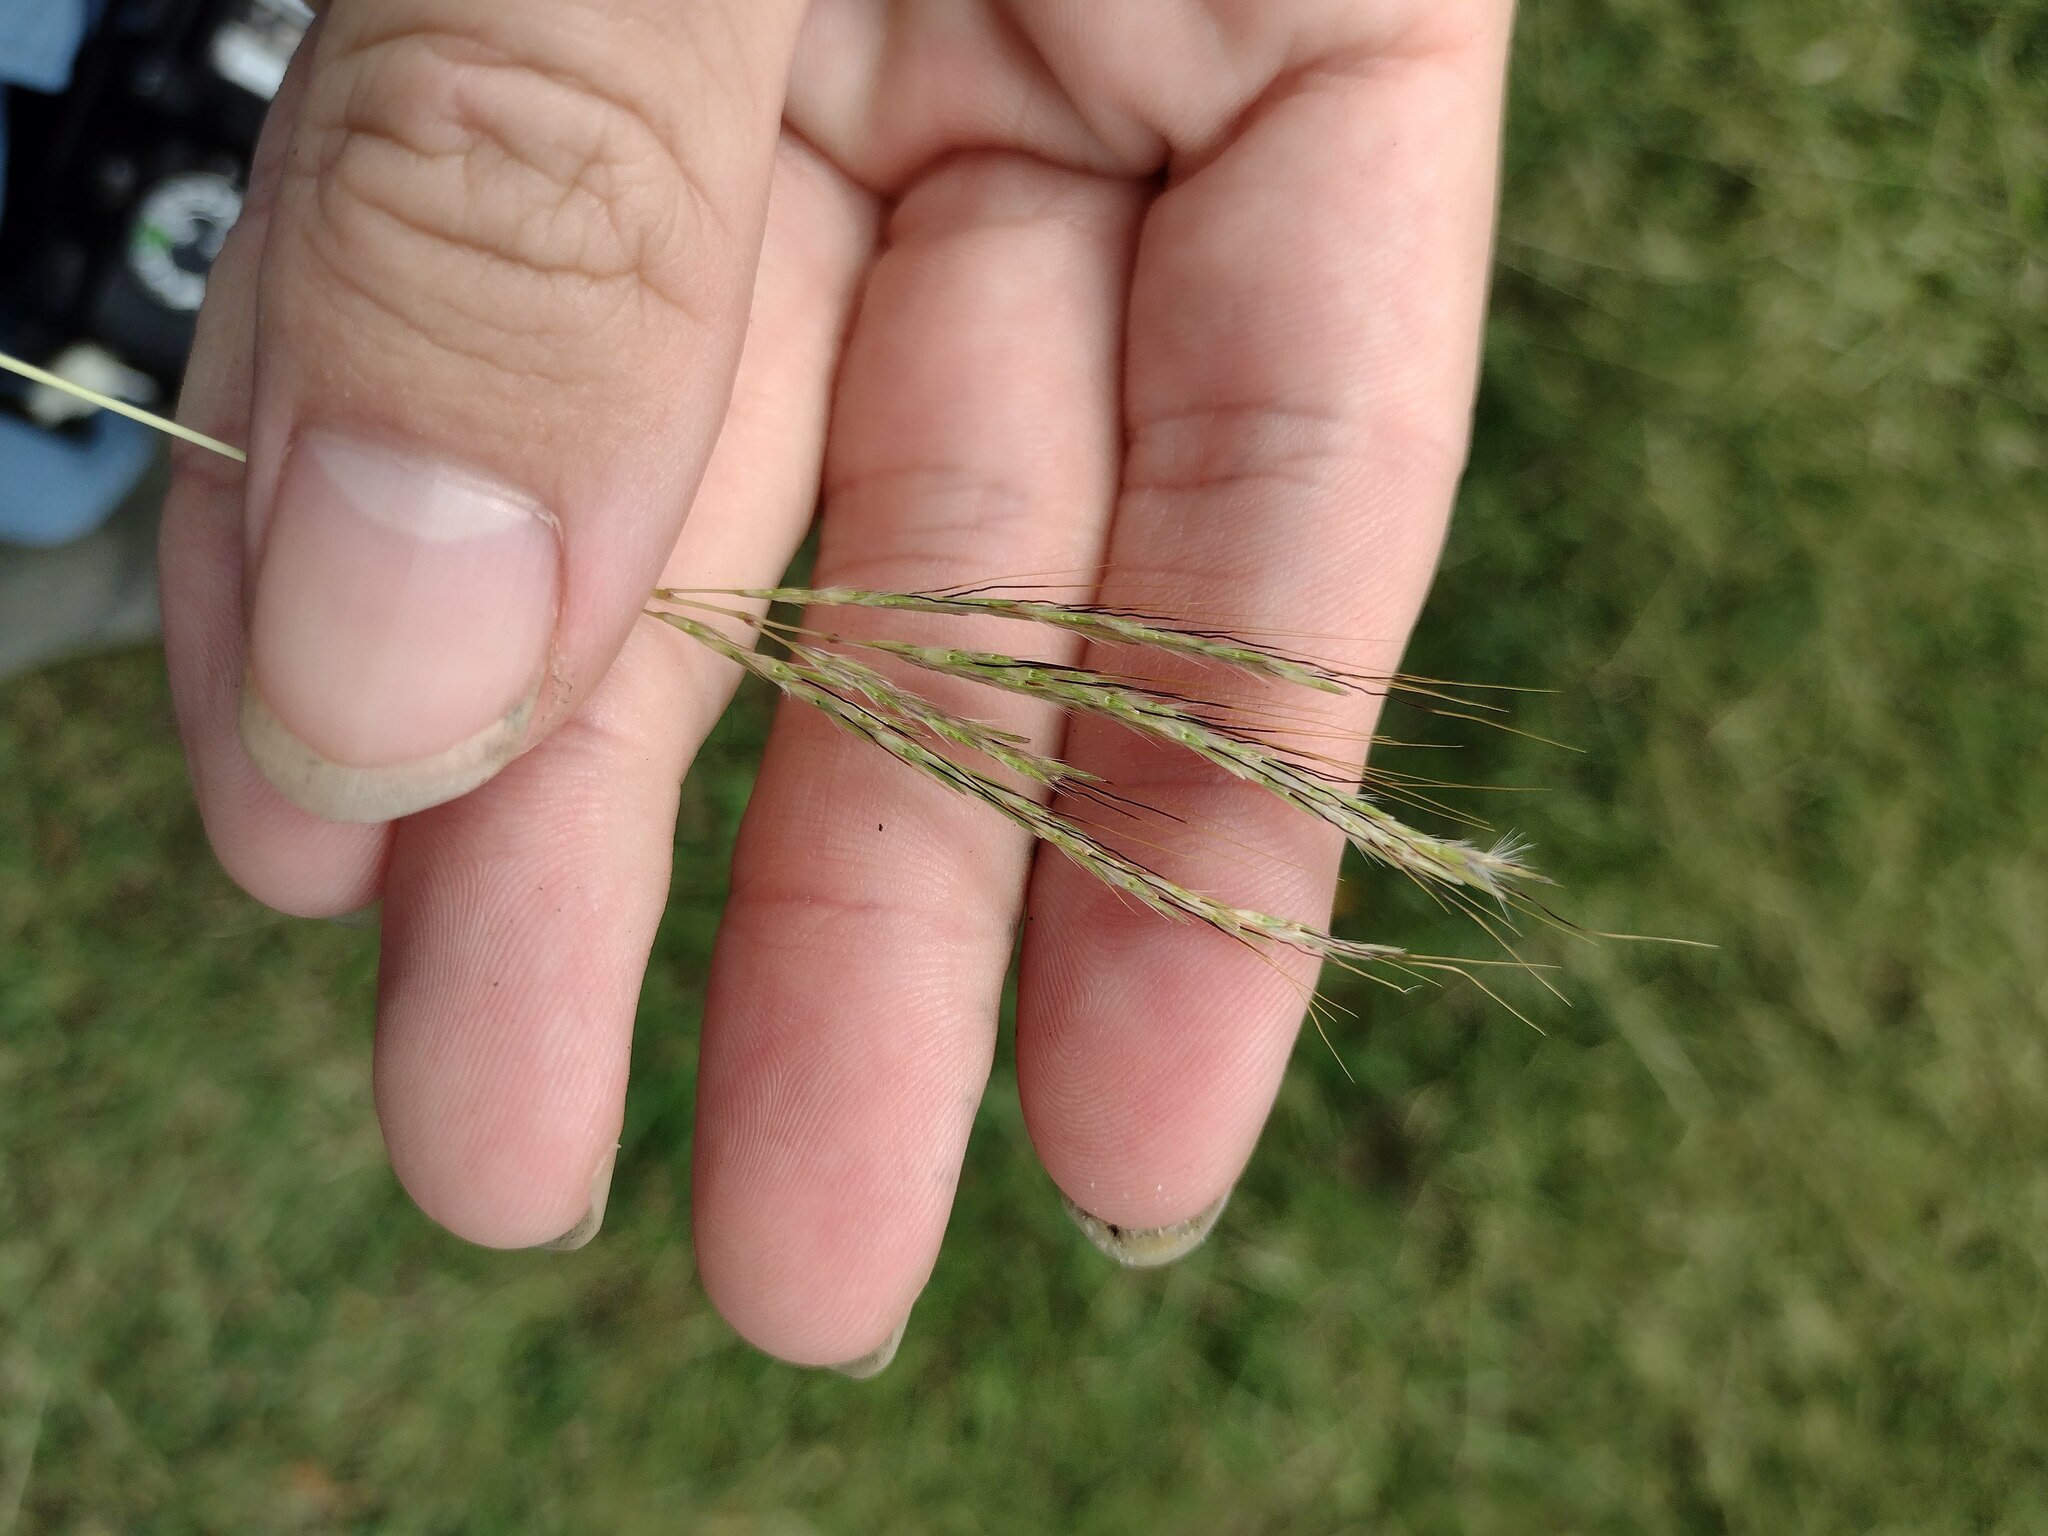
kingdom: Plantae
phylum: Tracheophyta
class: Liliopsida
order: Poales
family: Poaceae
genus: Bothriochloa
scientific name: Bothriochloa pertusa
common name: Pitted beardgrass
